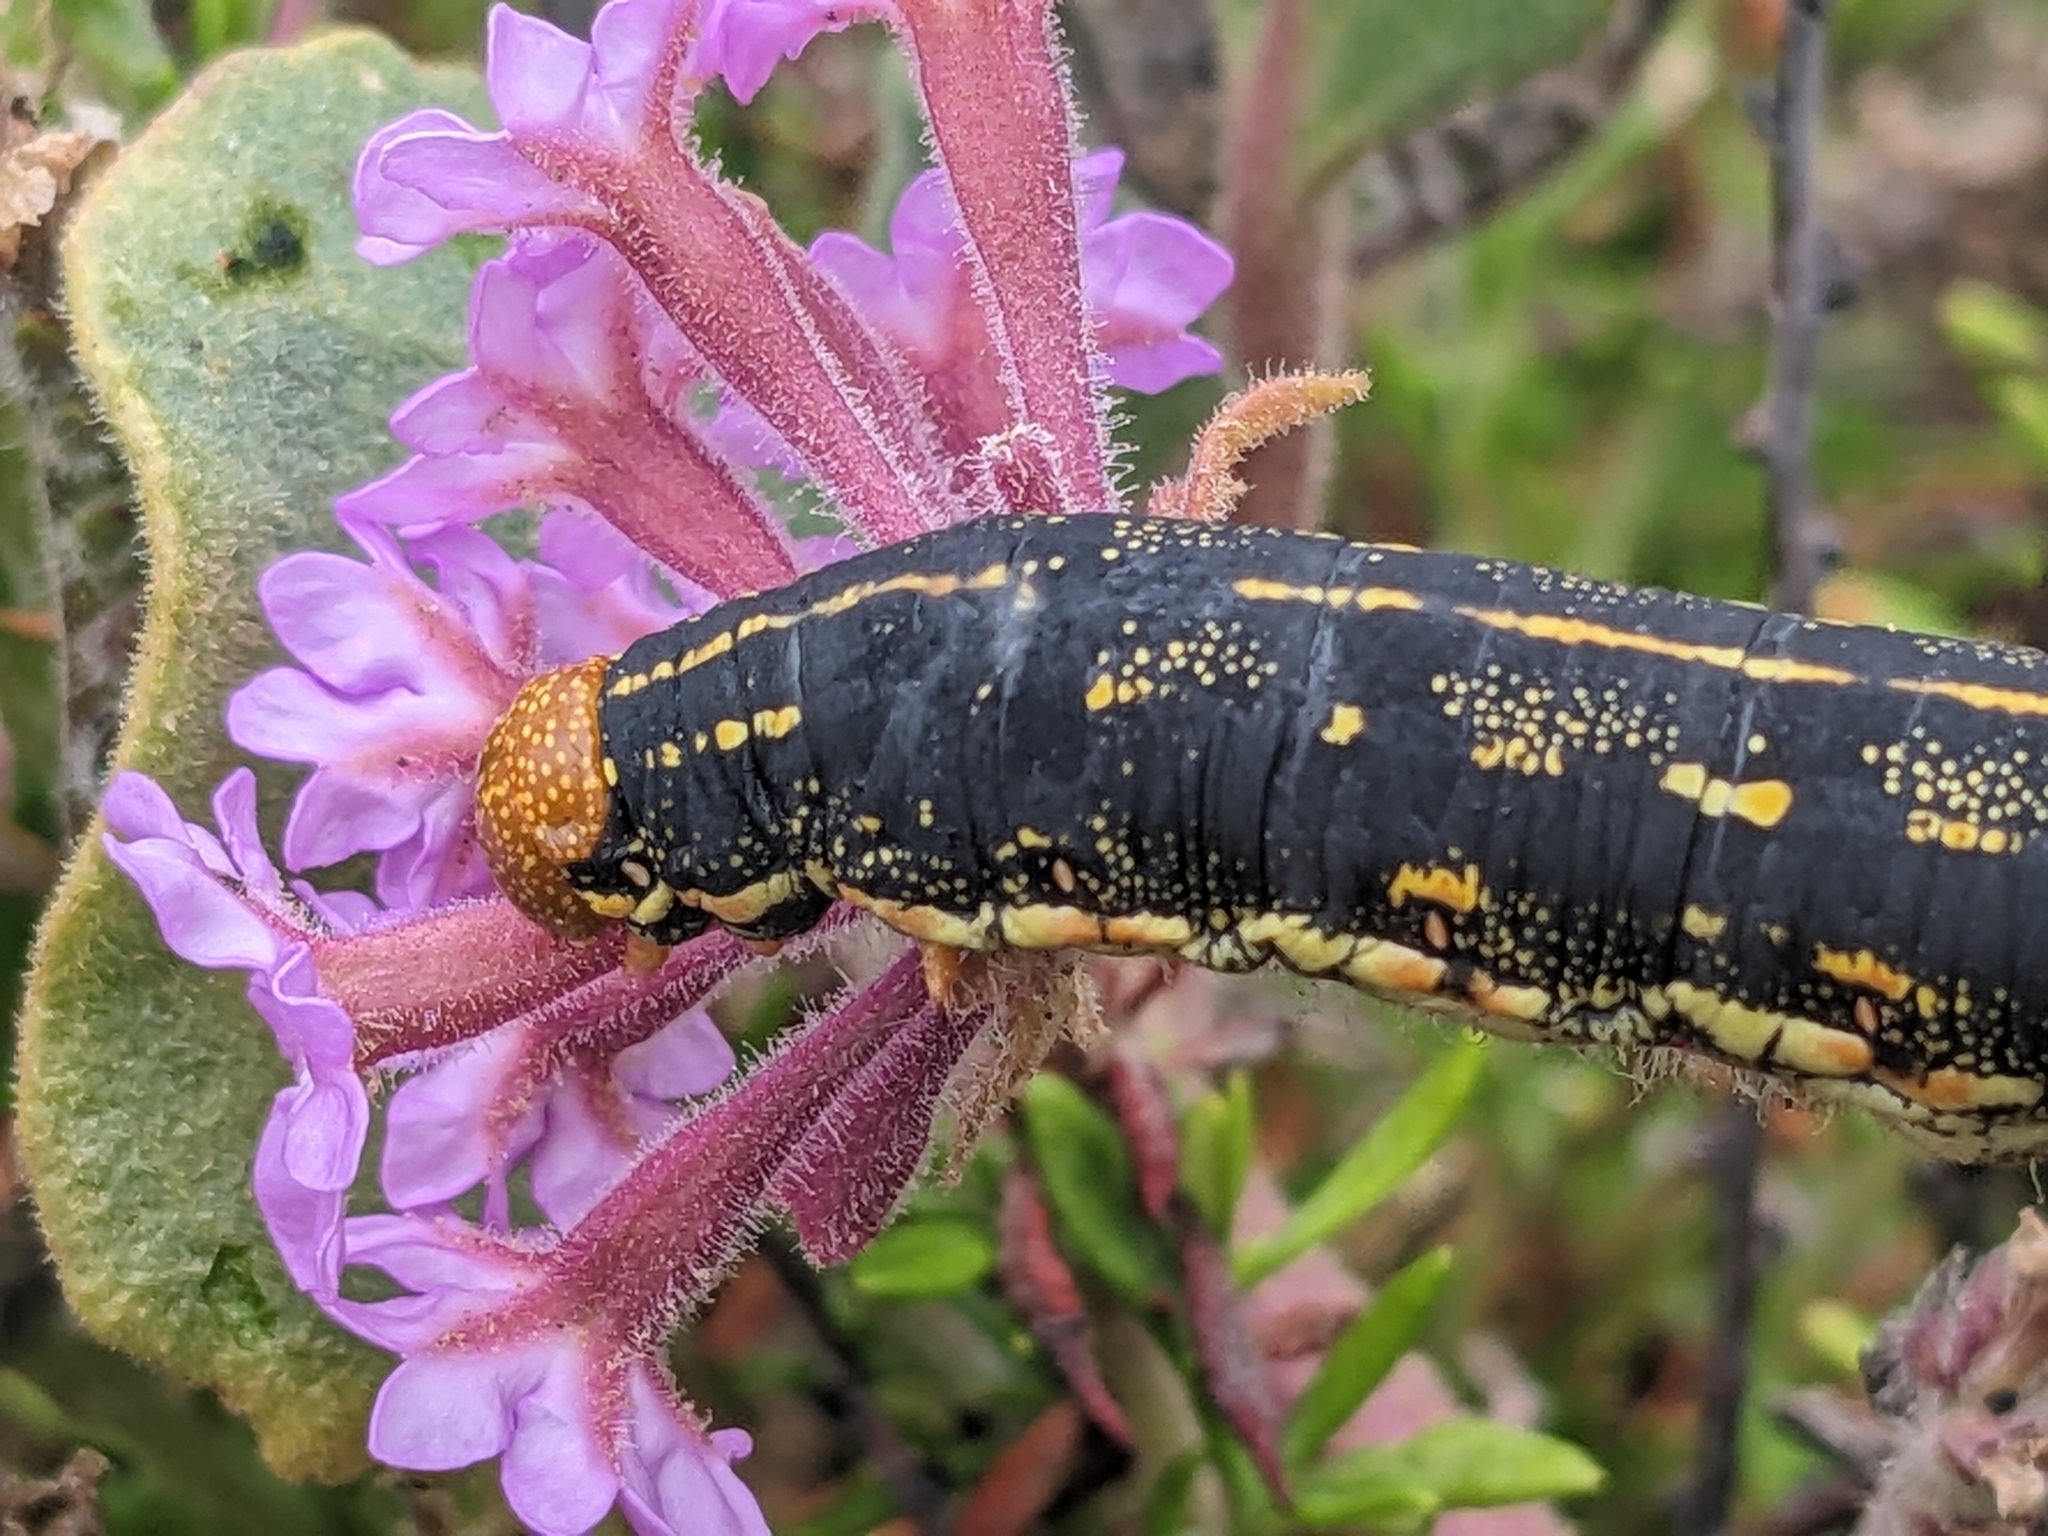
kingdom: Animalia
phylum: Arthropoda
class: Insecta
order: Lepidoptera
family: Sphingidae
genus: Hyles
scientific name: Hyles lineata
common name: White-lined sphinx
